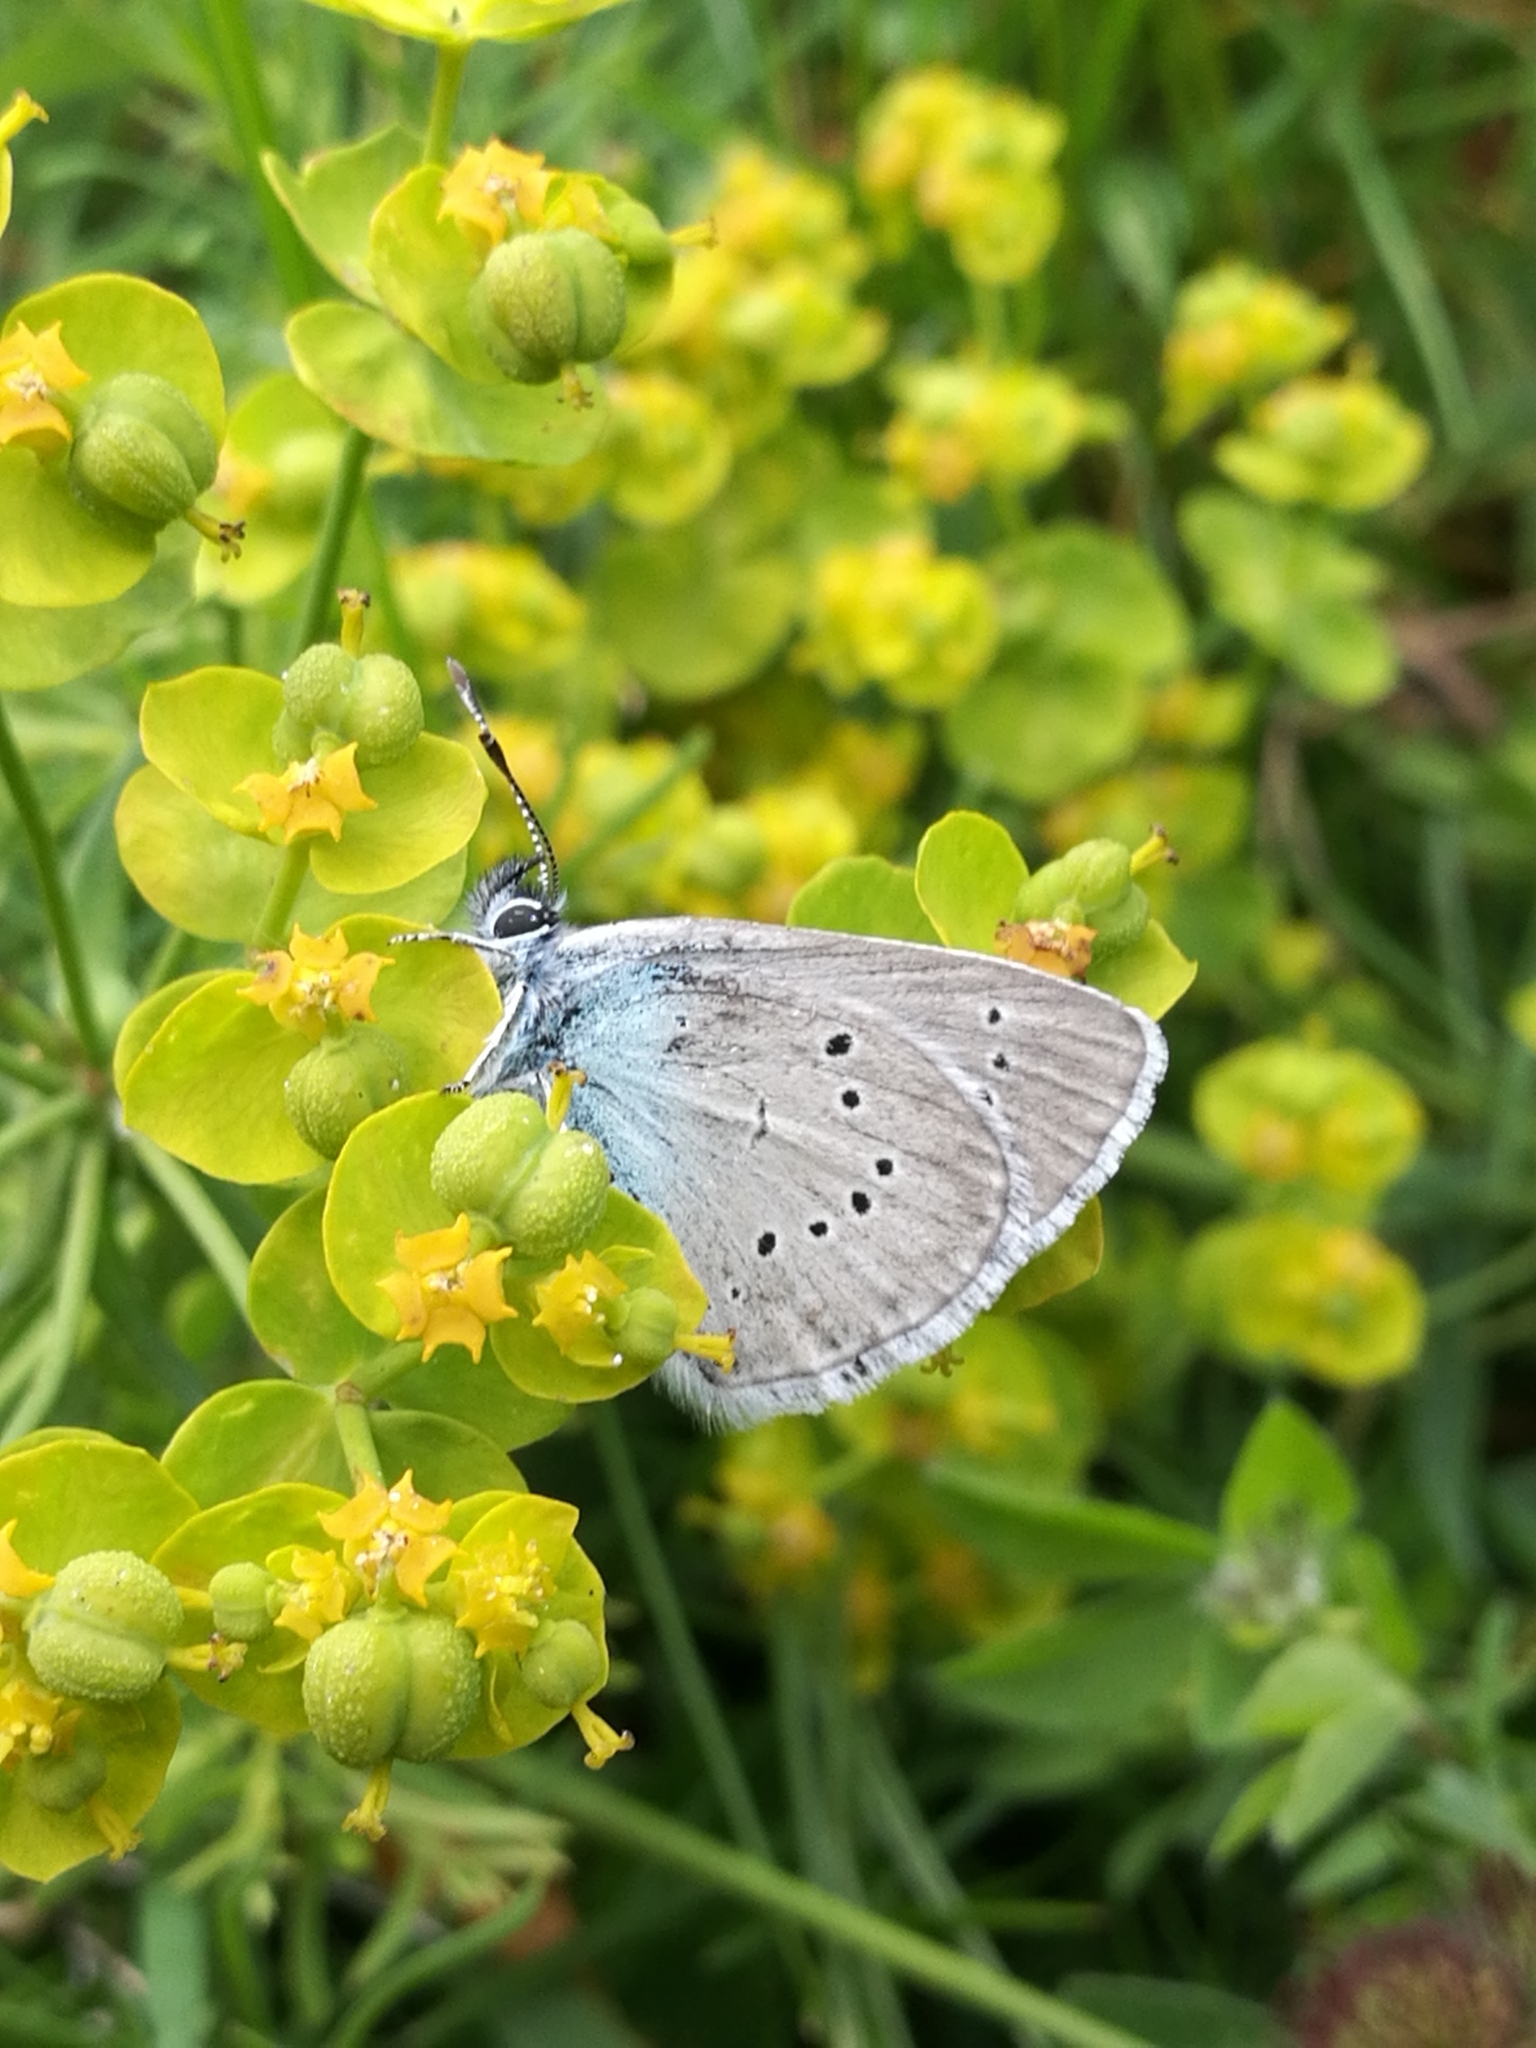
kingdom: Animalia
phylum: Arthropoda
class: Insecta
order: Lepidoptera
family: Lycaenidae
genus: Cyaniris
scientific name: Cyaniris semiargus
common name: Mazarine blue
